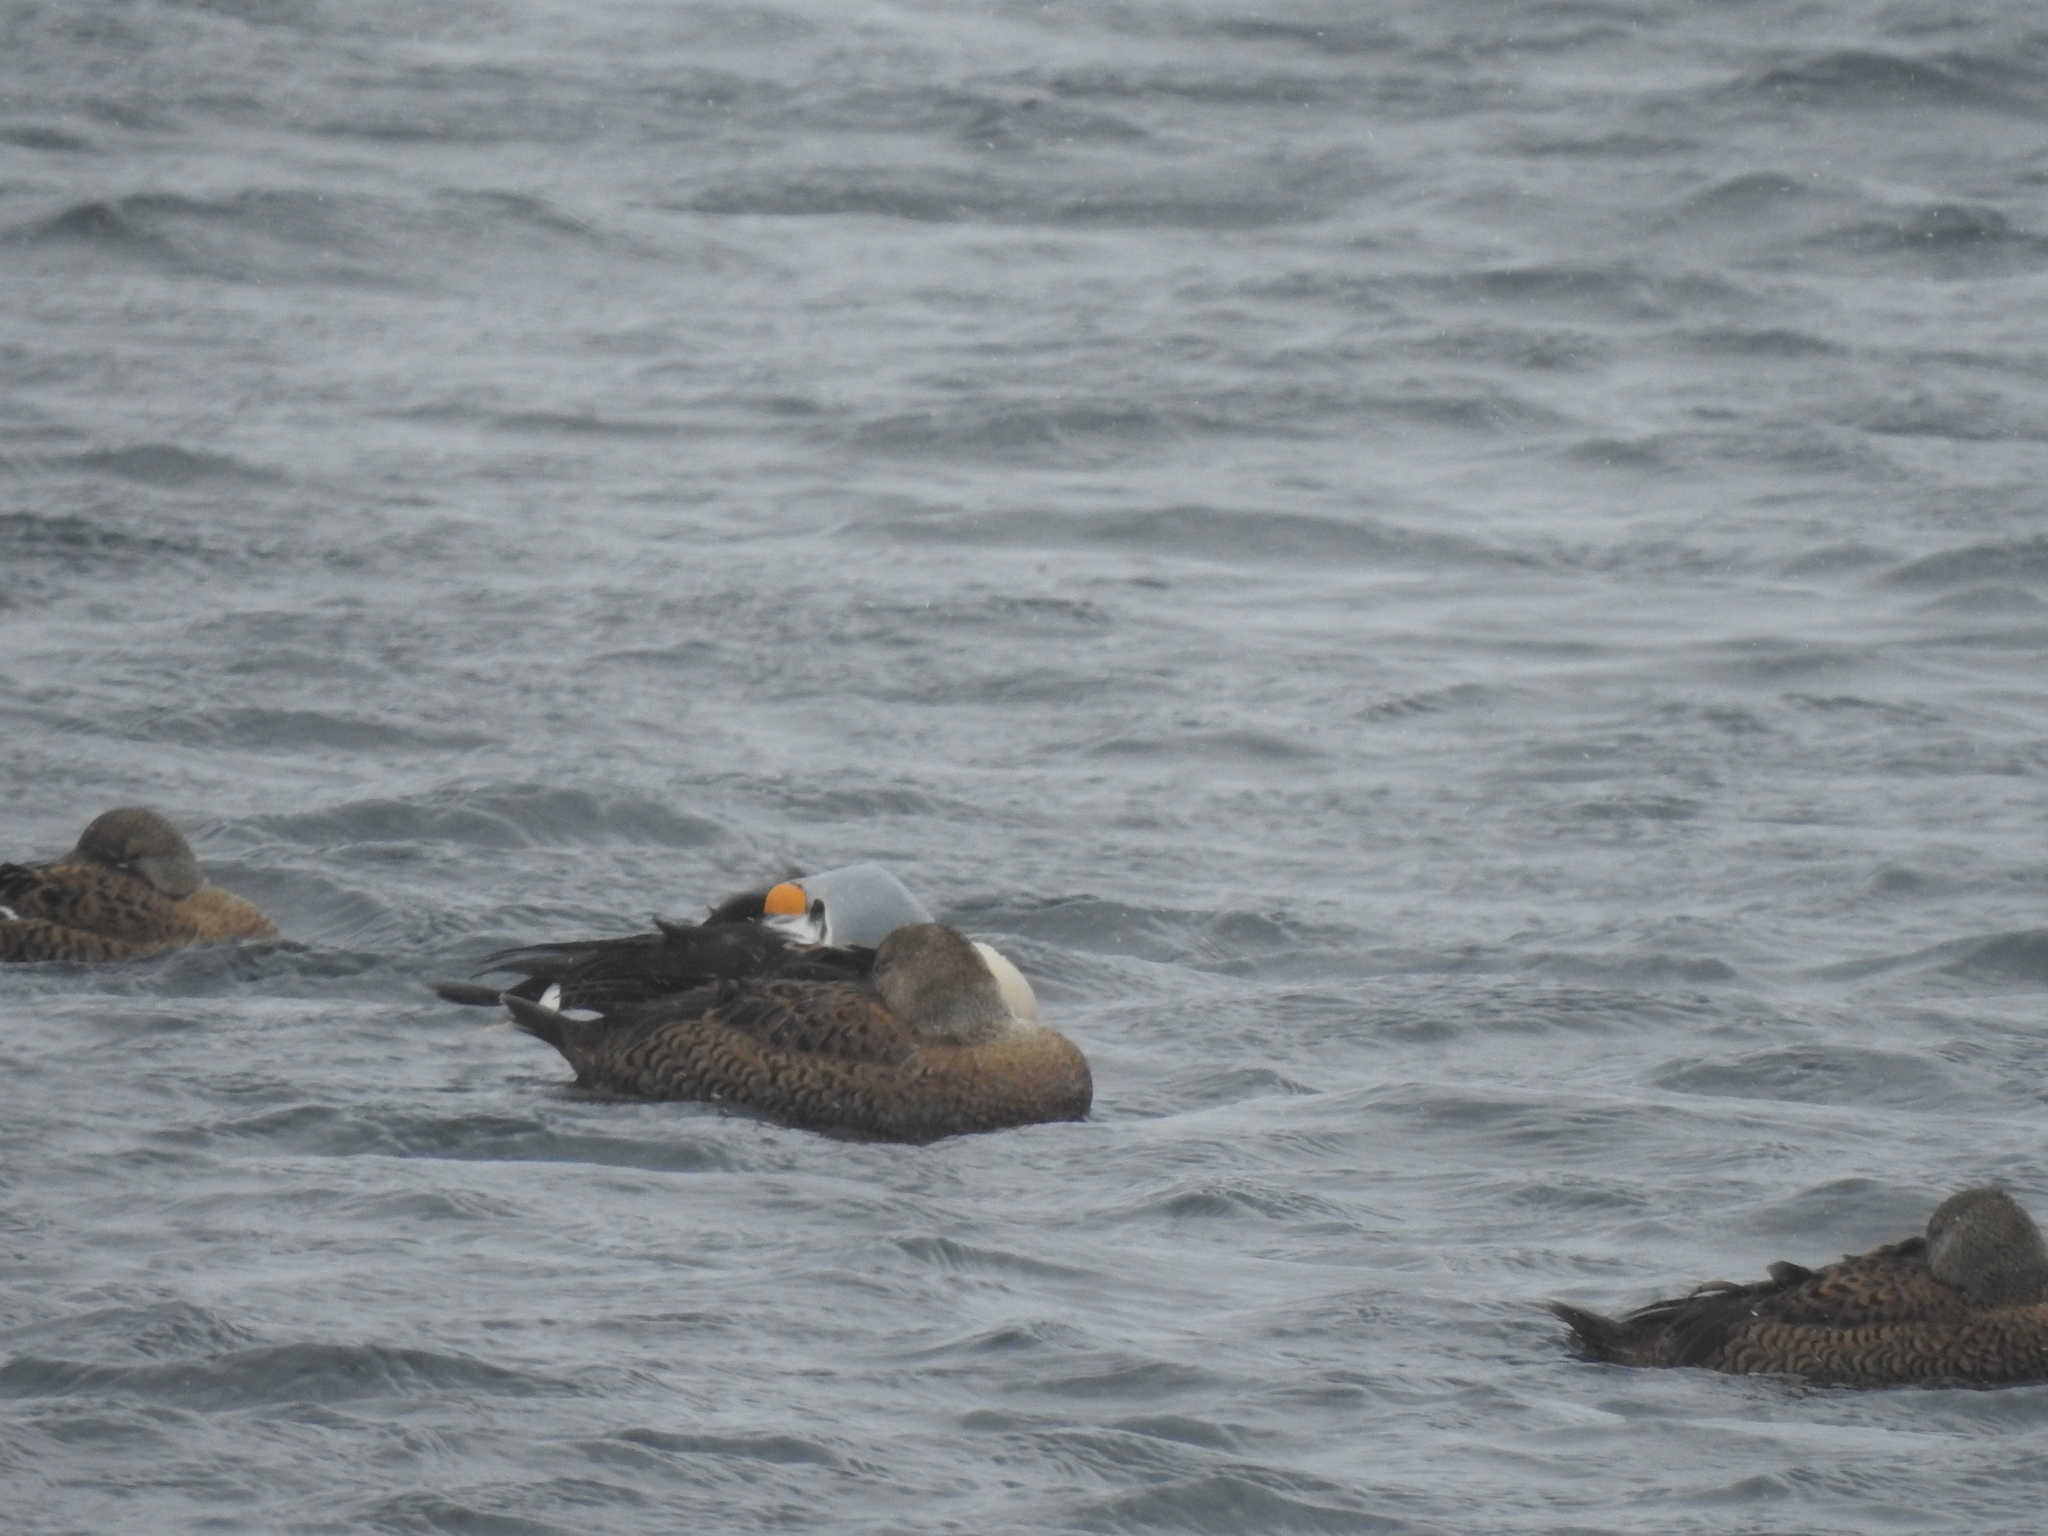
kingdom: Animalia
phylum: Chordata
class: Aves
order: Anseriformes
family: Anatidae
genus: Somateria
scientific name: Somateria spectabilis
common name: King eider
